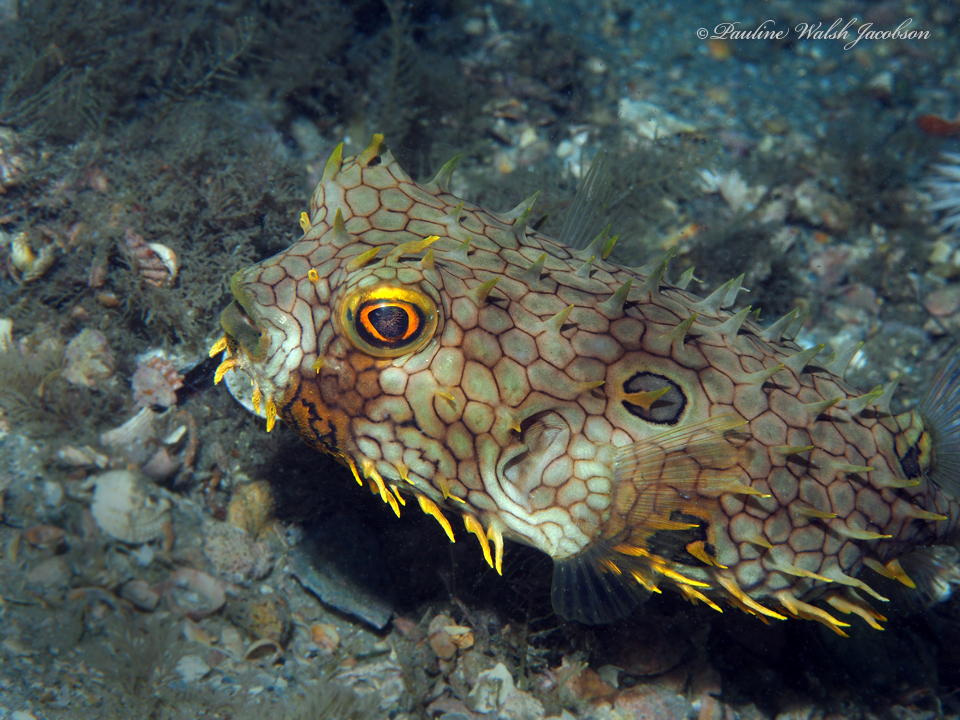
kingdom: Animalia
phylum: Chordata
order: Tetraodontiformes
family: Diodontidae
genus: Chilomycterus
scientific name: Chilomycterus antillarum
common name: Web burrfish
